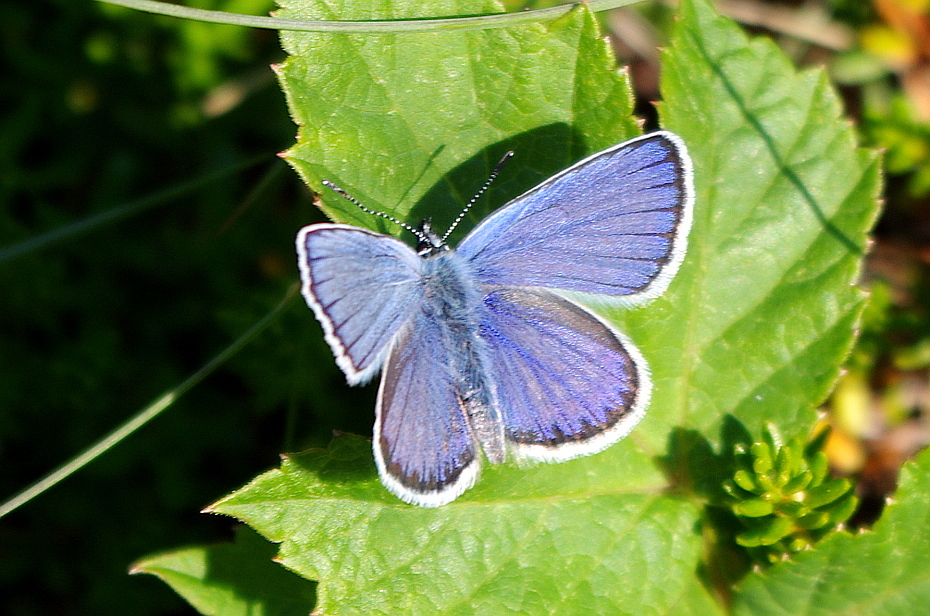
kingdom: Animalia
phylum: Arthropoda
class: Insecta
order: Lepidoptera
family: Lycaenidae
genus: Lycaeides
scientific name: Lycaeides idas
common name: Northern blue
